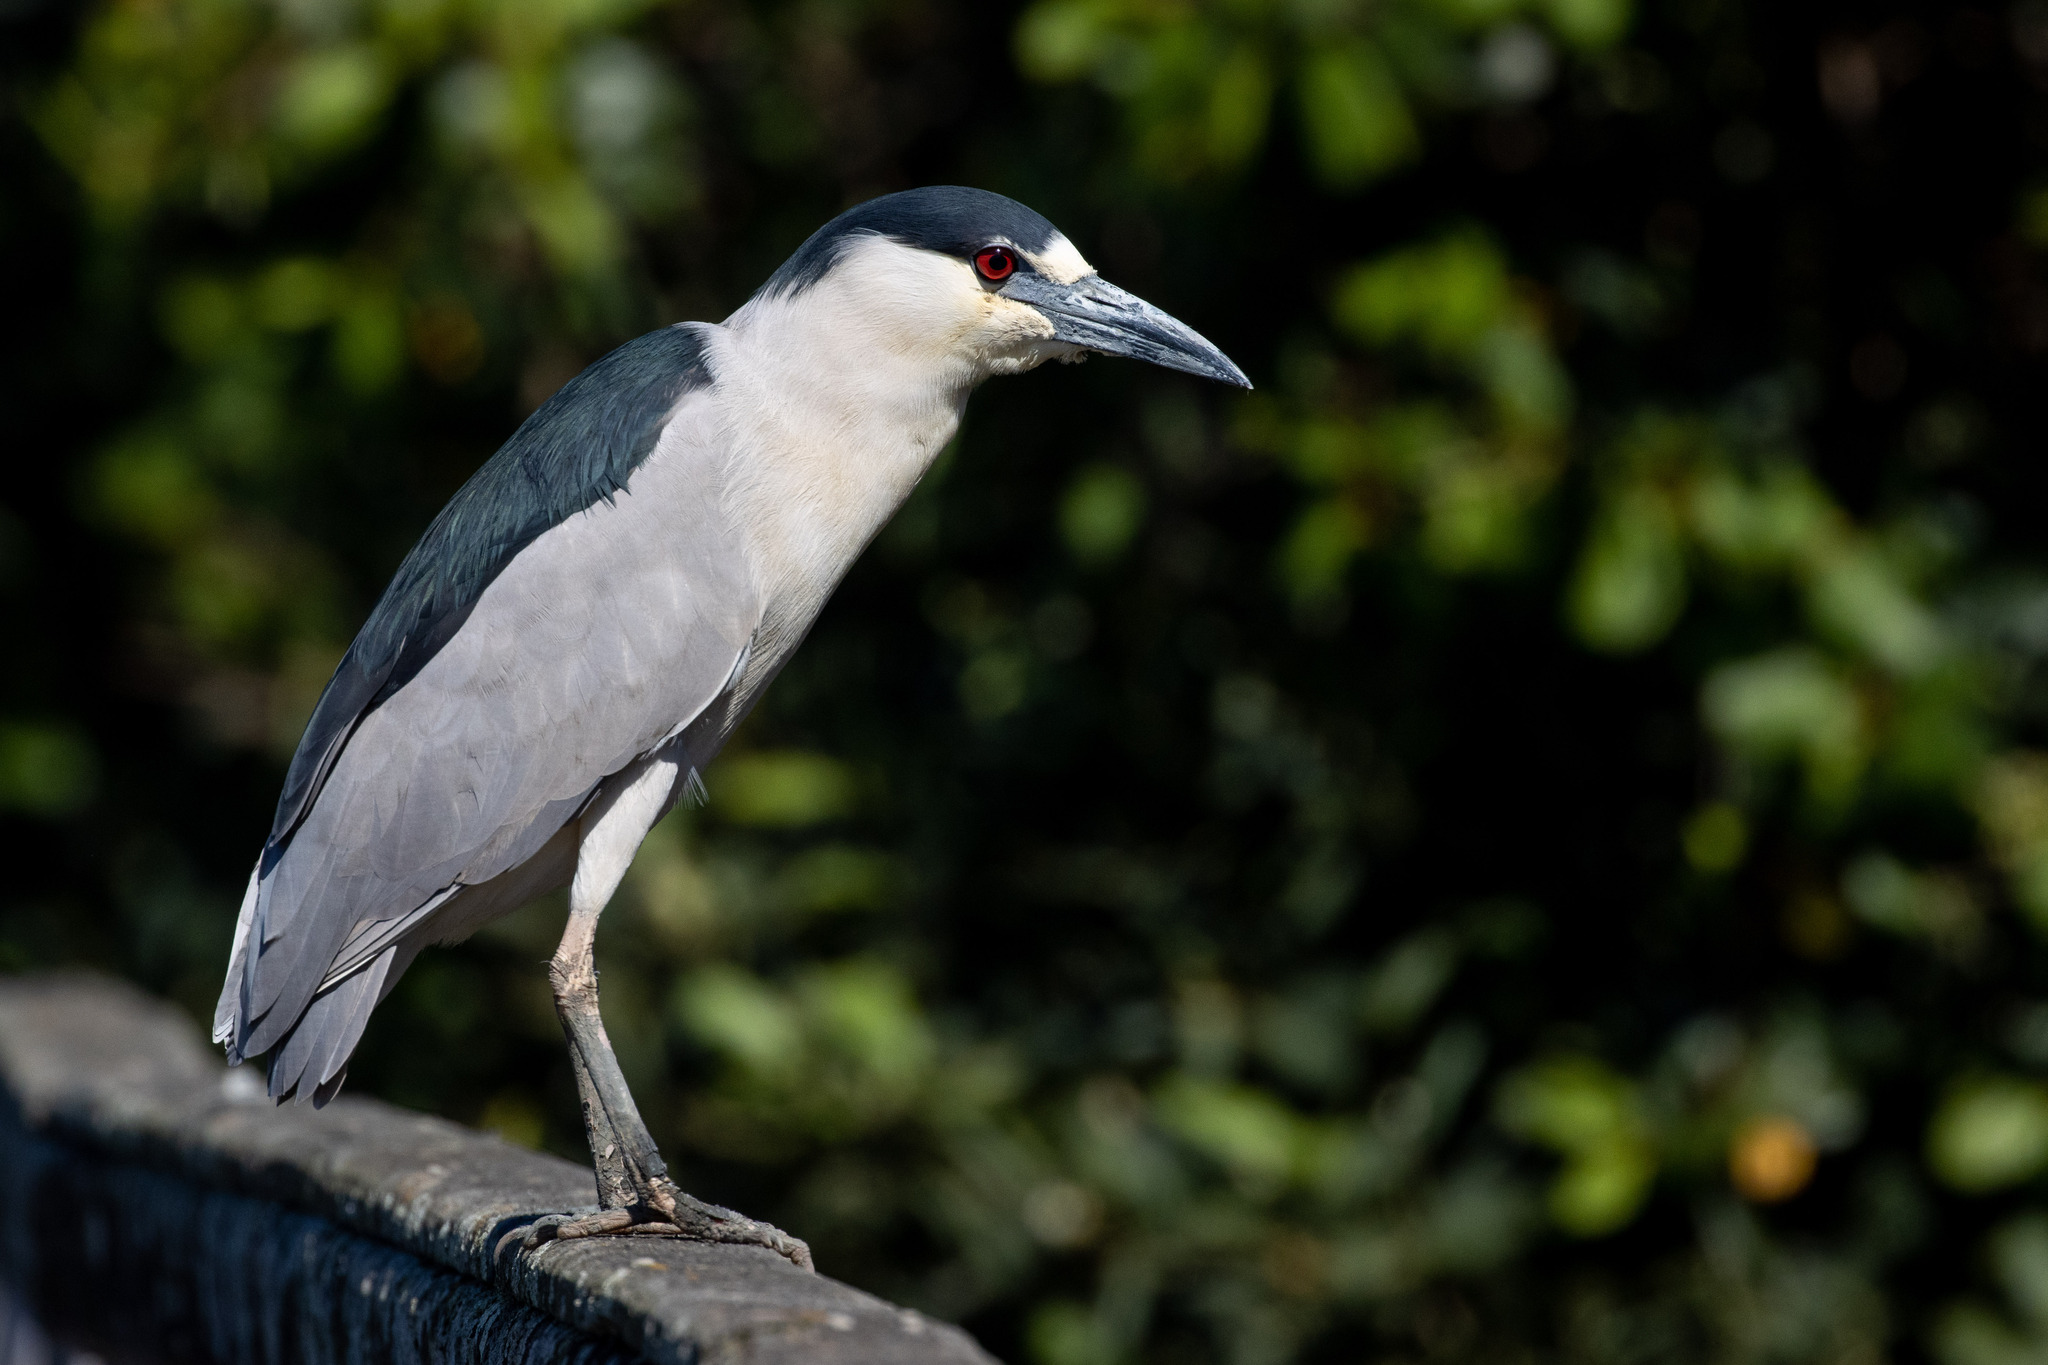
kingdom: Animalia
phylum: Chordata
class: Aves
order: Pelecaniformes
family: Ardeidae
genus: Nycticorax
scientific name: Nycticorax nycticorax
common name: Black-crowned night heron
